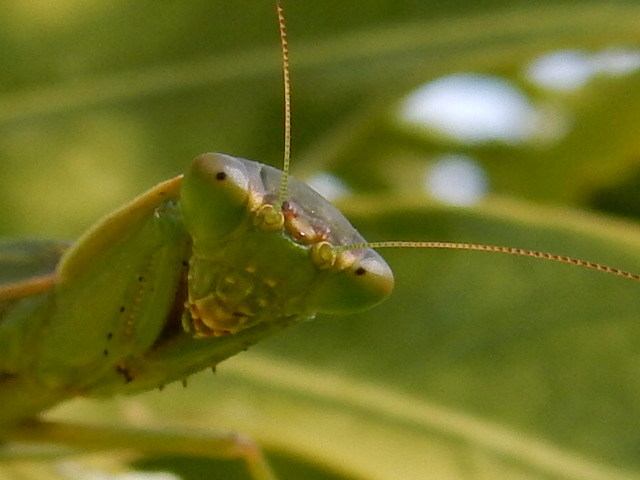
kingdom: Animalia
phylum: Arthropoda
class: Insecta
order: Mantodea
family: Mantidae
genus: Orthodera
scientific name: Orthodera novaezealandiae
